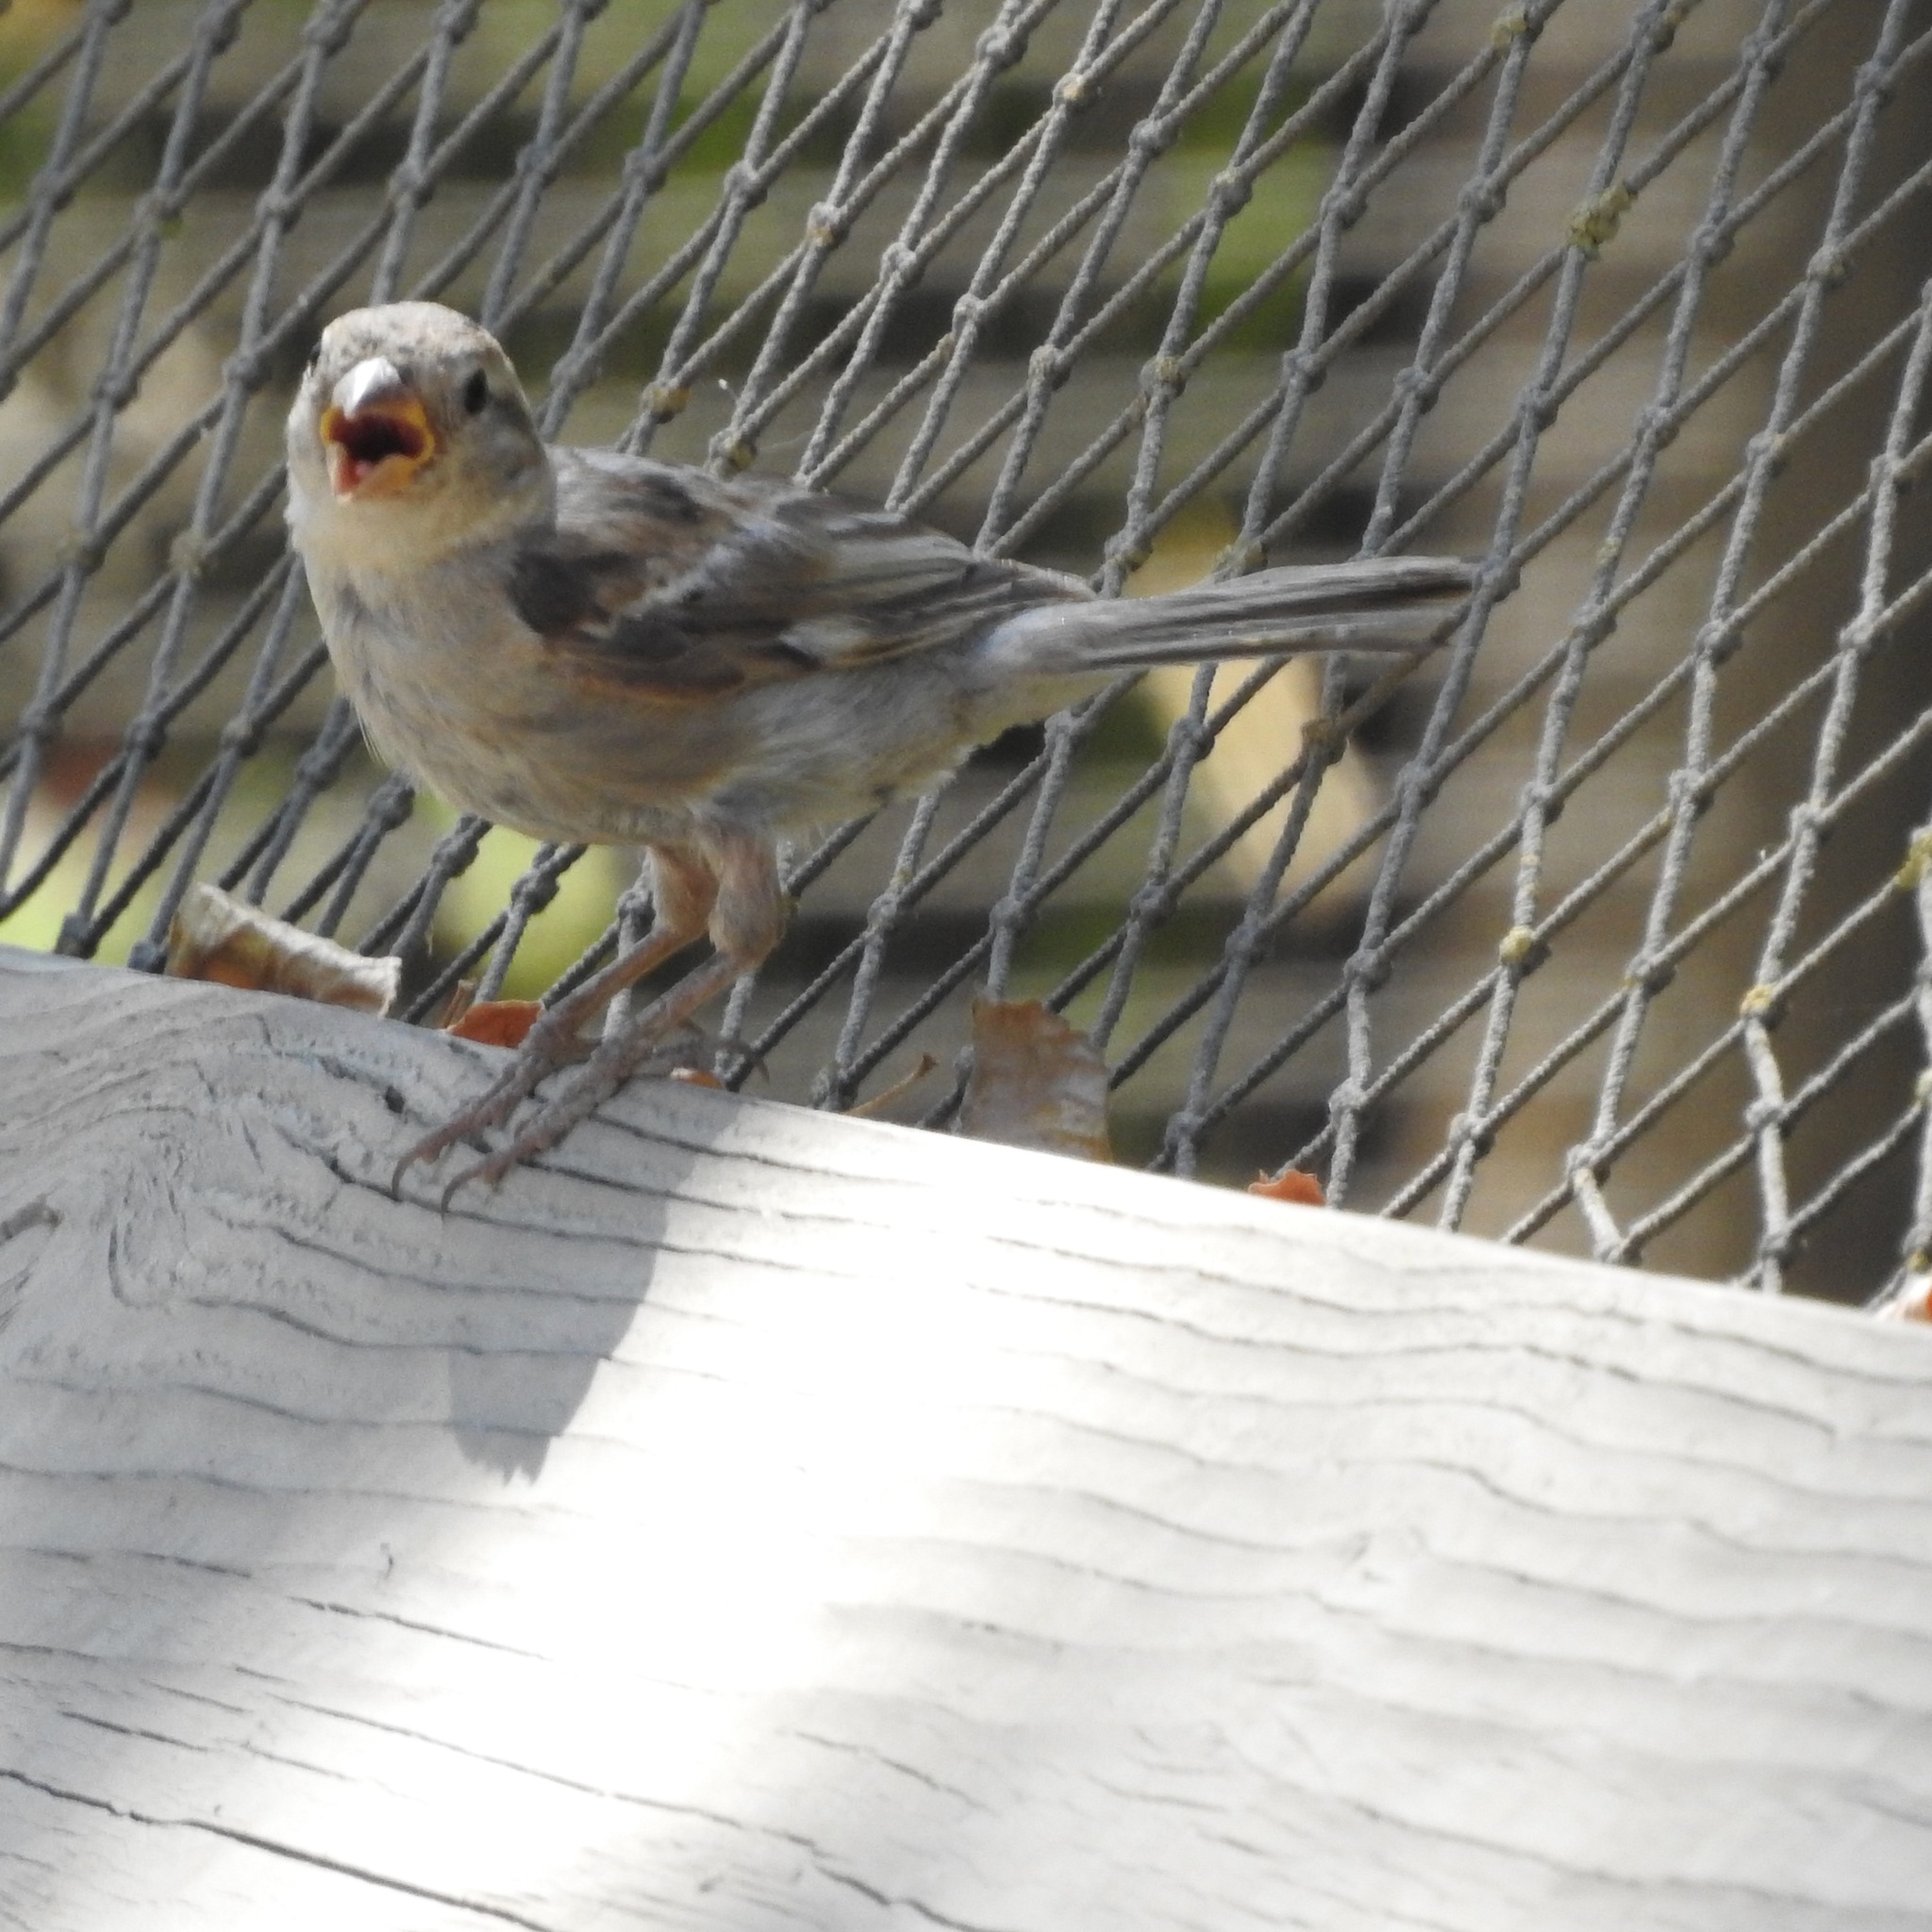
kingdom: Animalia
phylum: Chordata
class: Aves
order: Passeriformes
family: Passeridae
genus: Passer
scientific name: Passer domesticus
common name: House sparrow
